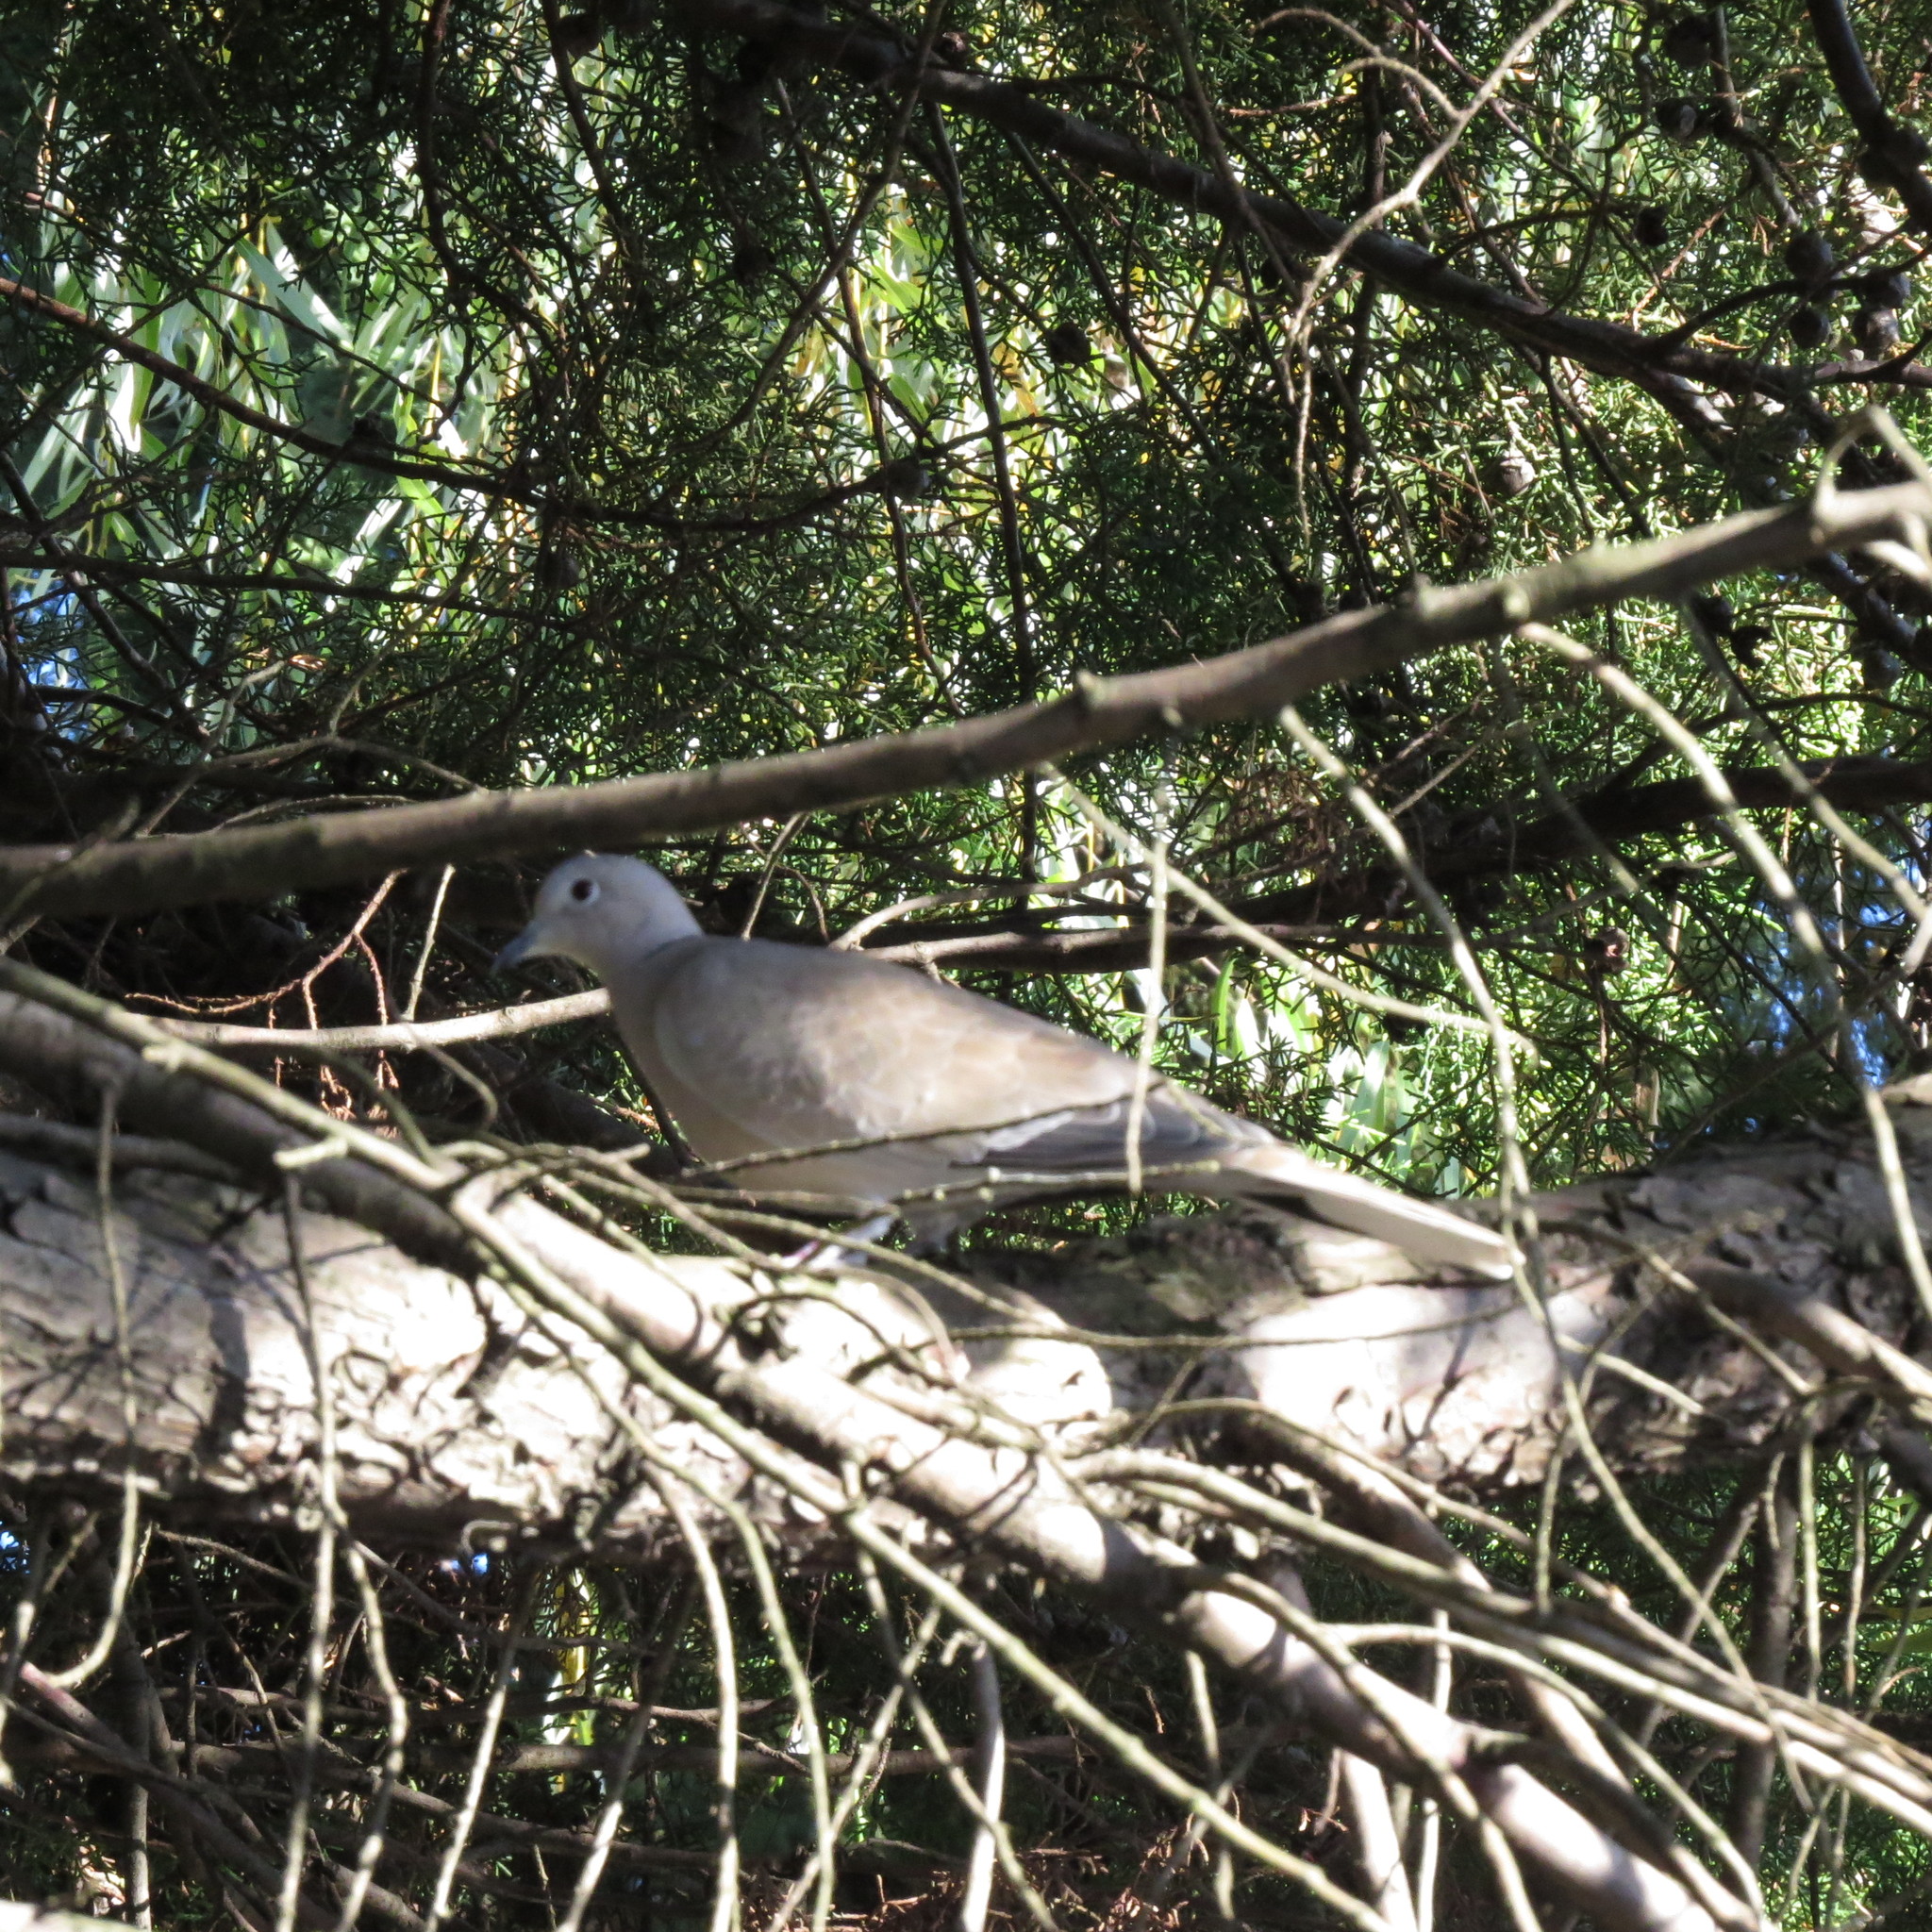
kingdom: Animalia
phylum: Chordata
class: Aves
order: Columbiformes
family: Columbidae
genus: Streptopelia
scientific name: Streptopelia decaocto
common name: Eurasian collared dove
